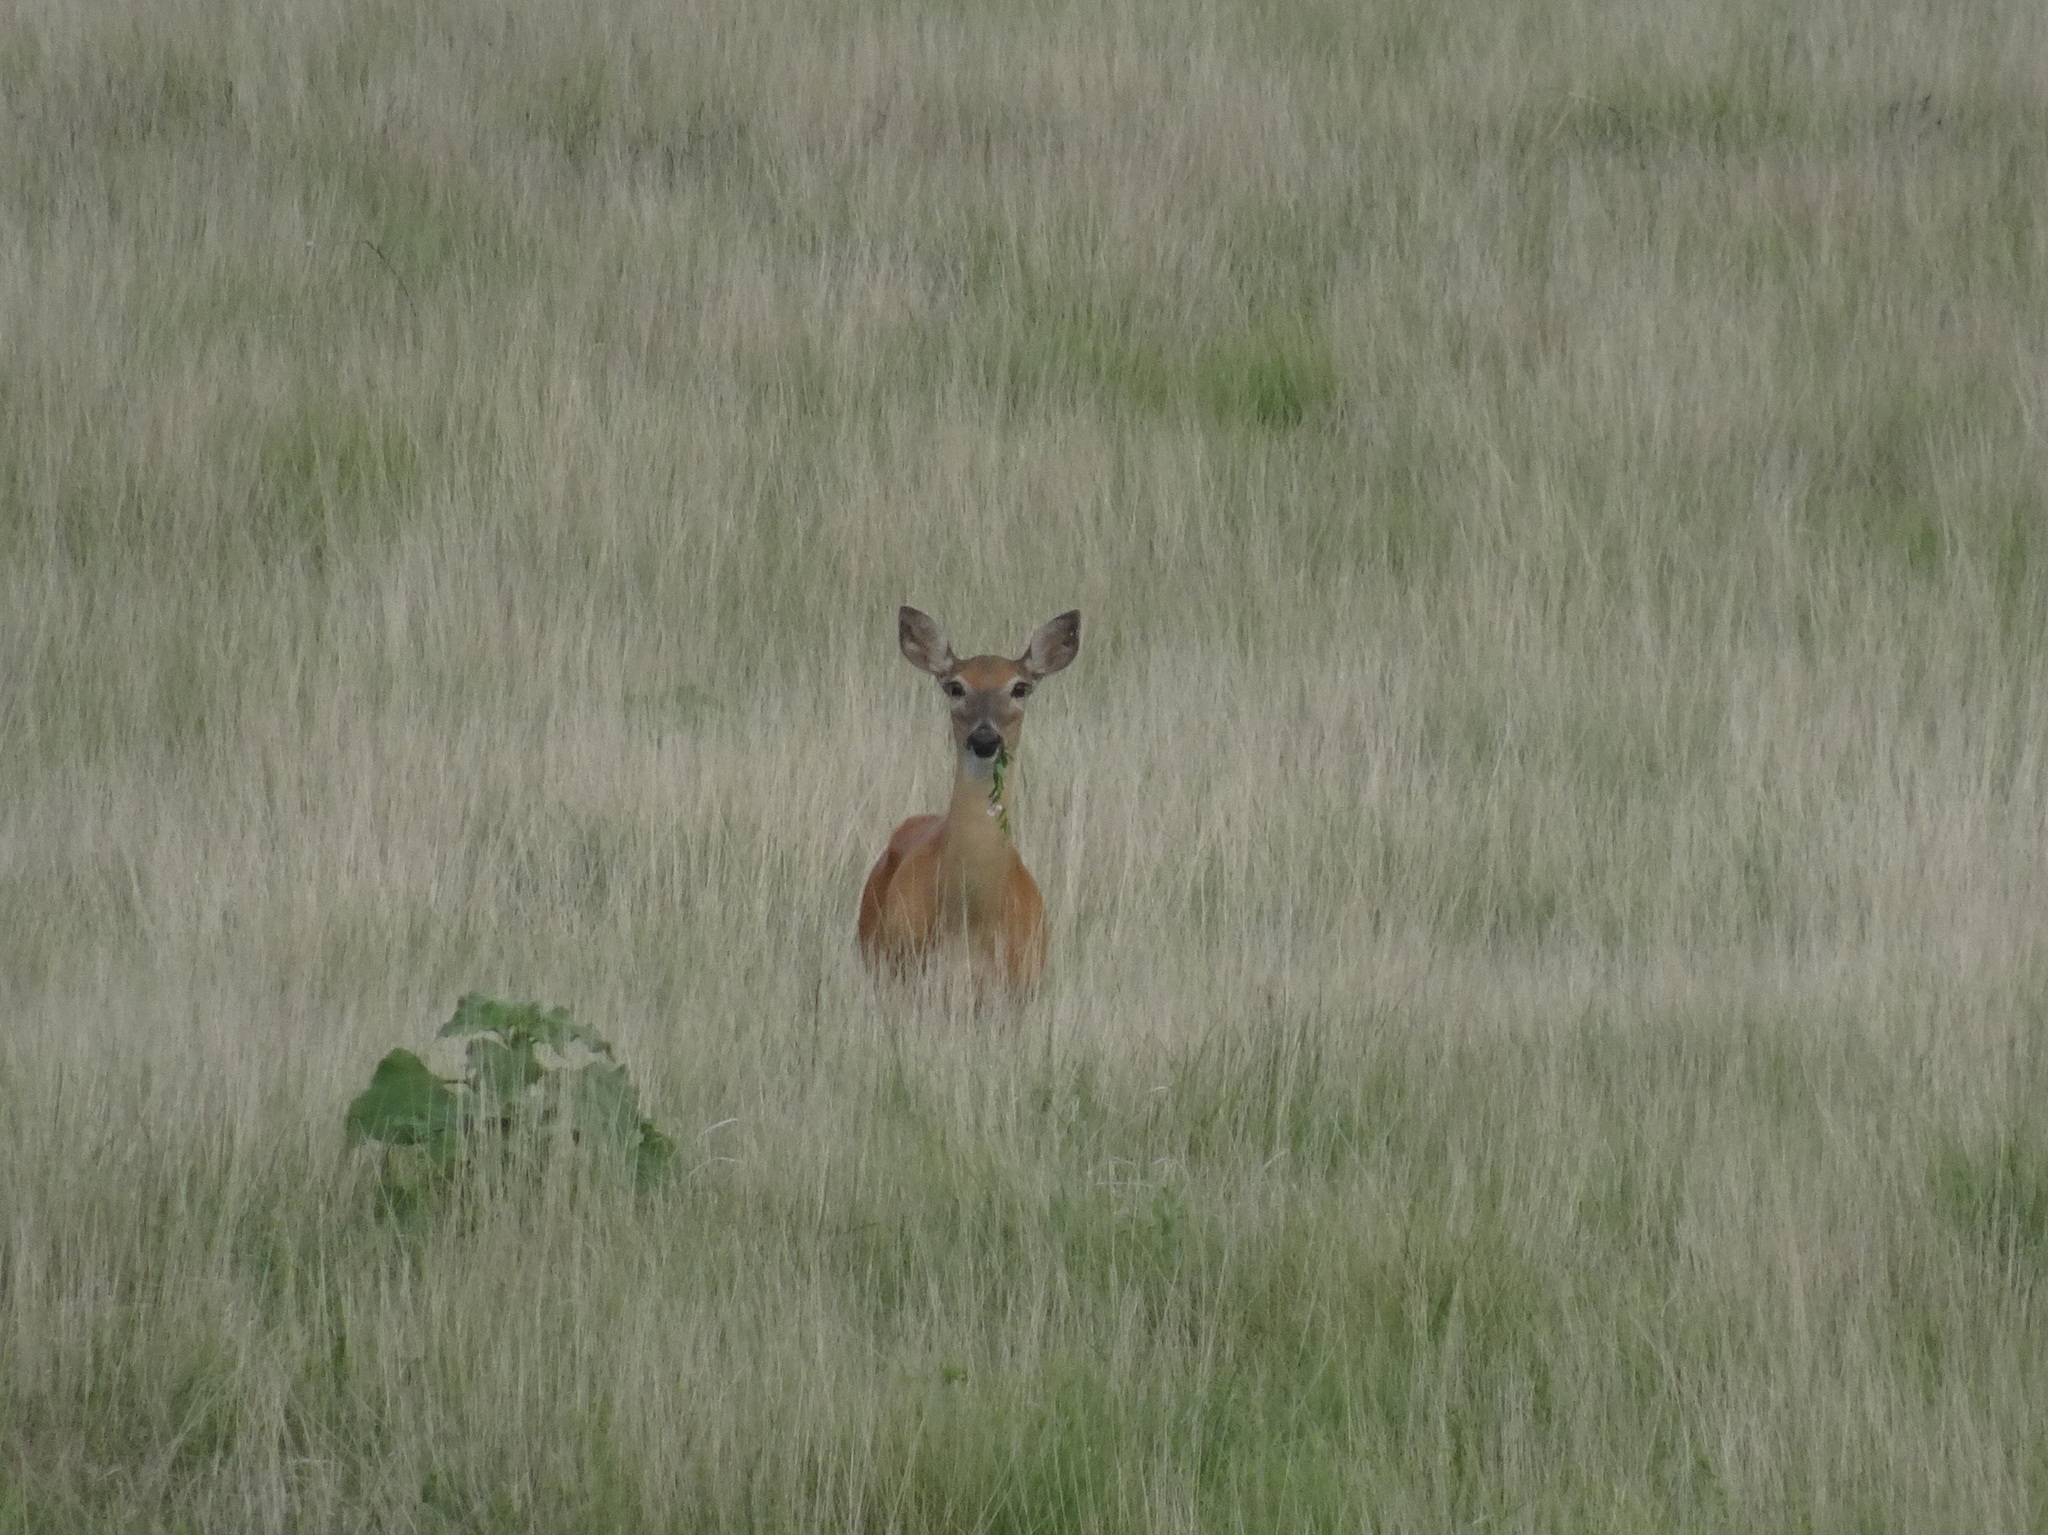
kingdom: Animalia
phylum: Chordata
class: Mammalia
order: Artiodactyla
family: Cervidae
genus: Odocoileus
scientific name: Odocoileus virginianus
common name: White-tailed deer
